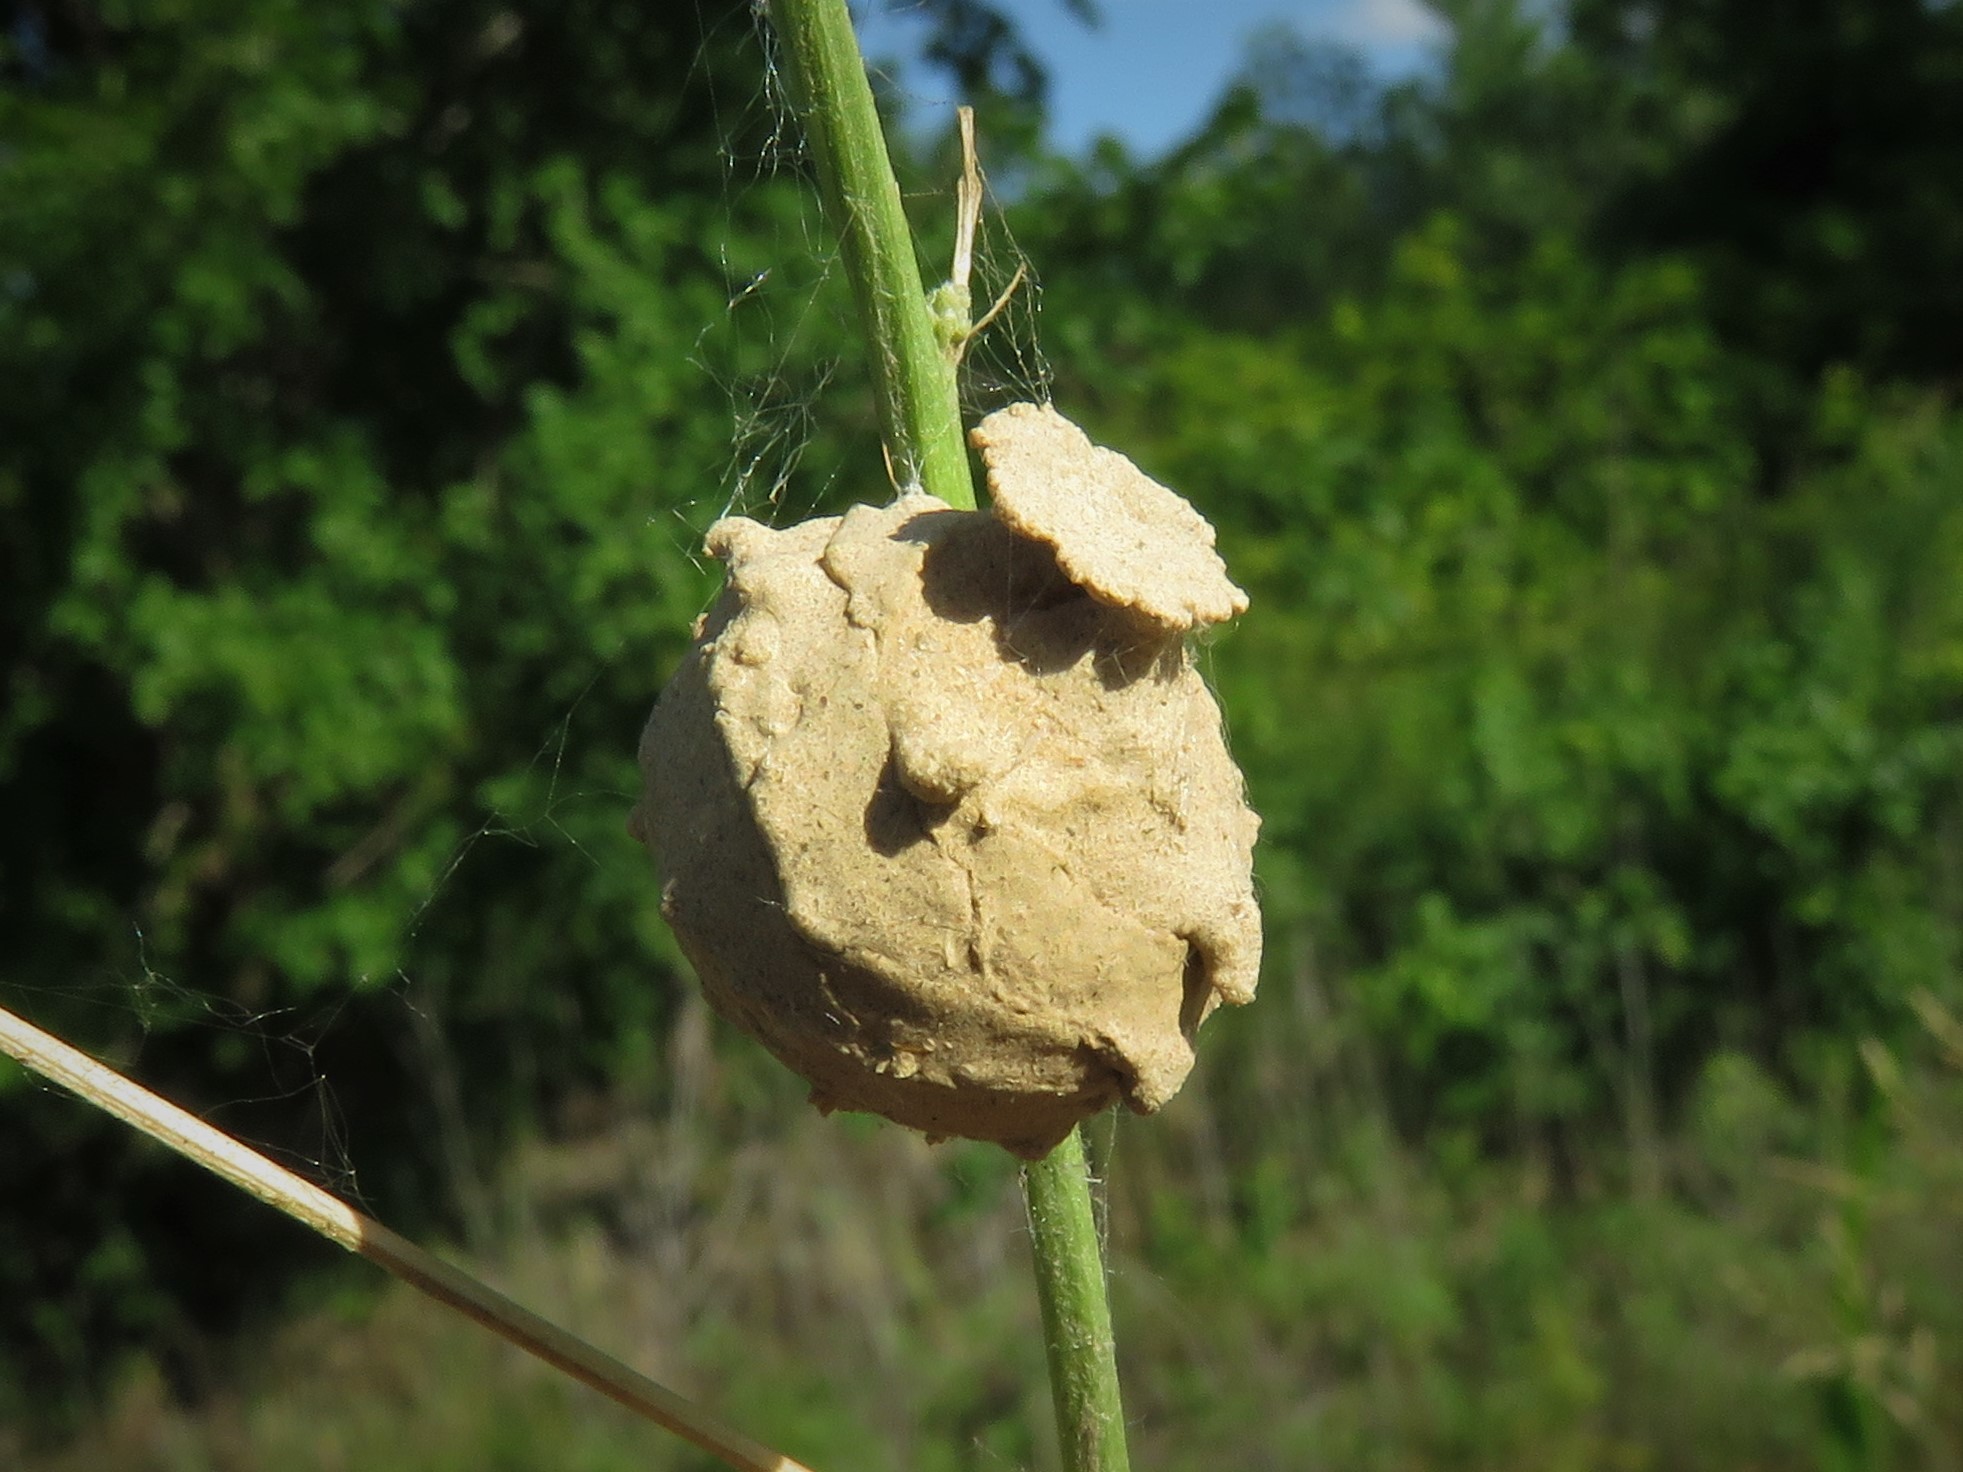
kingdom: Animalia
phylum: Arthropoda
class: Insecta
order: Hymenoptera
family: Vespidae
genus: Eumenes
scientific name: Eumenes
